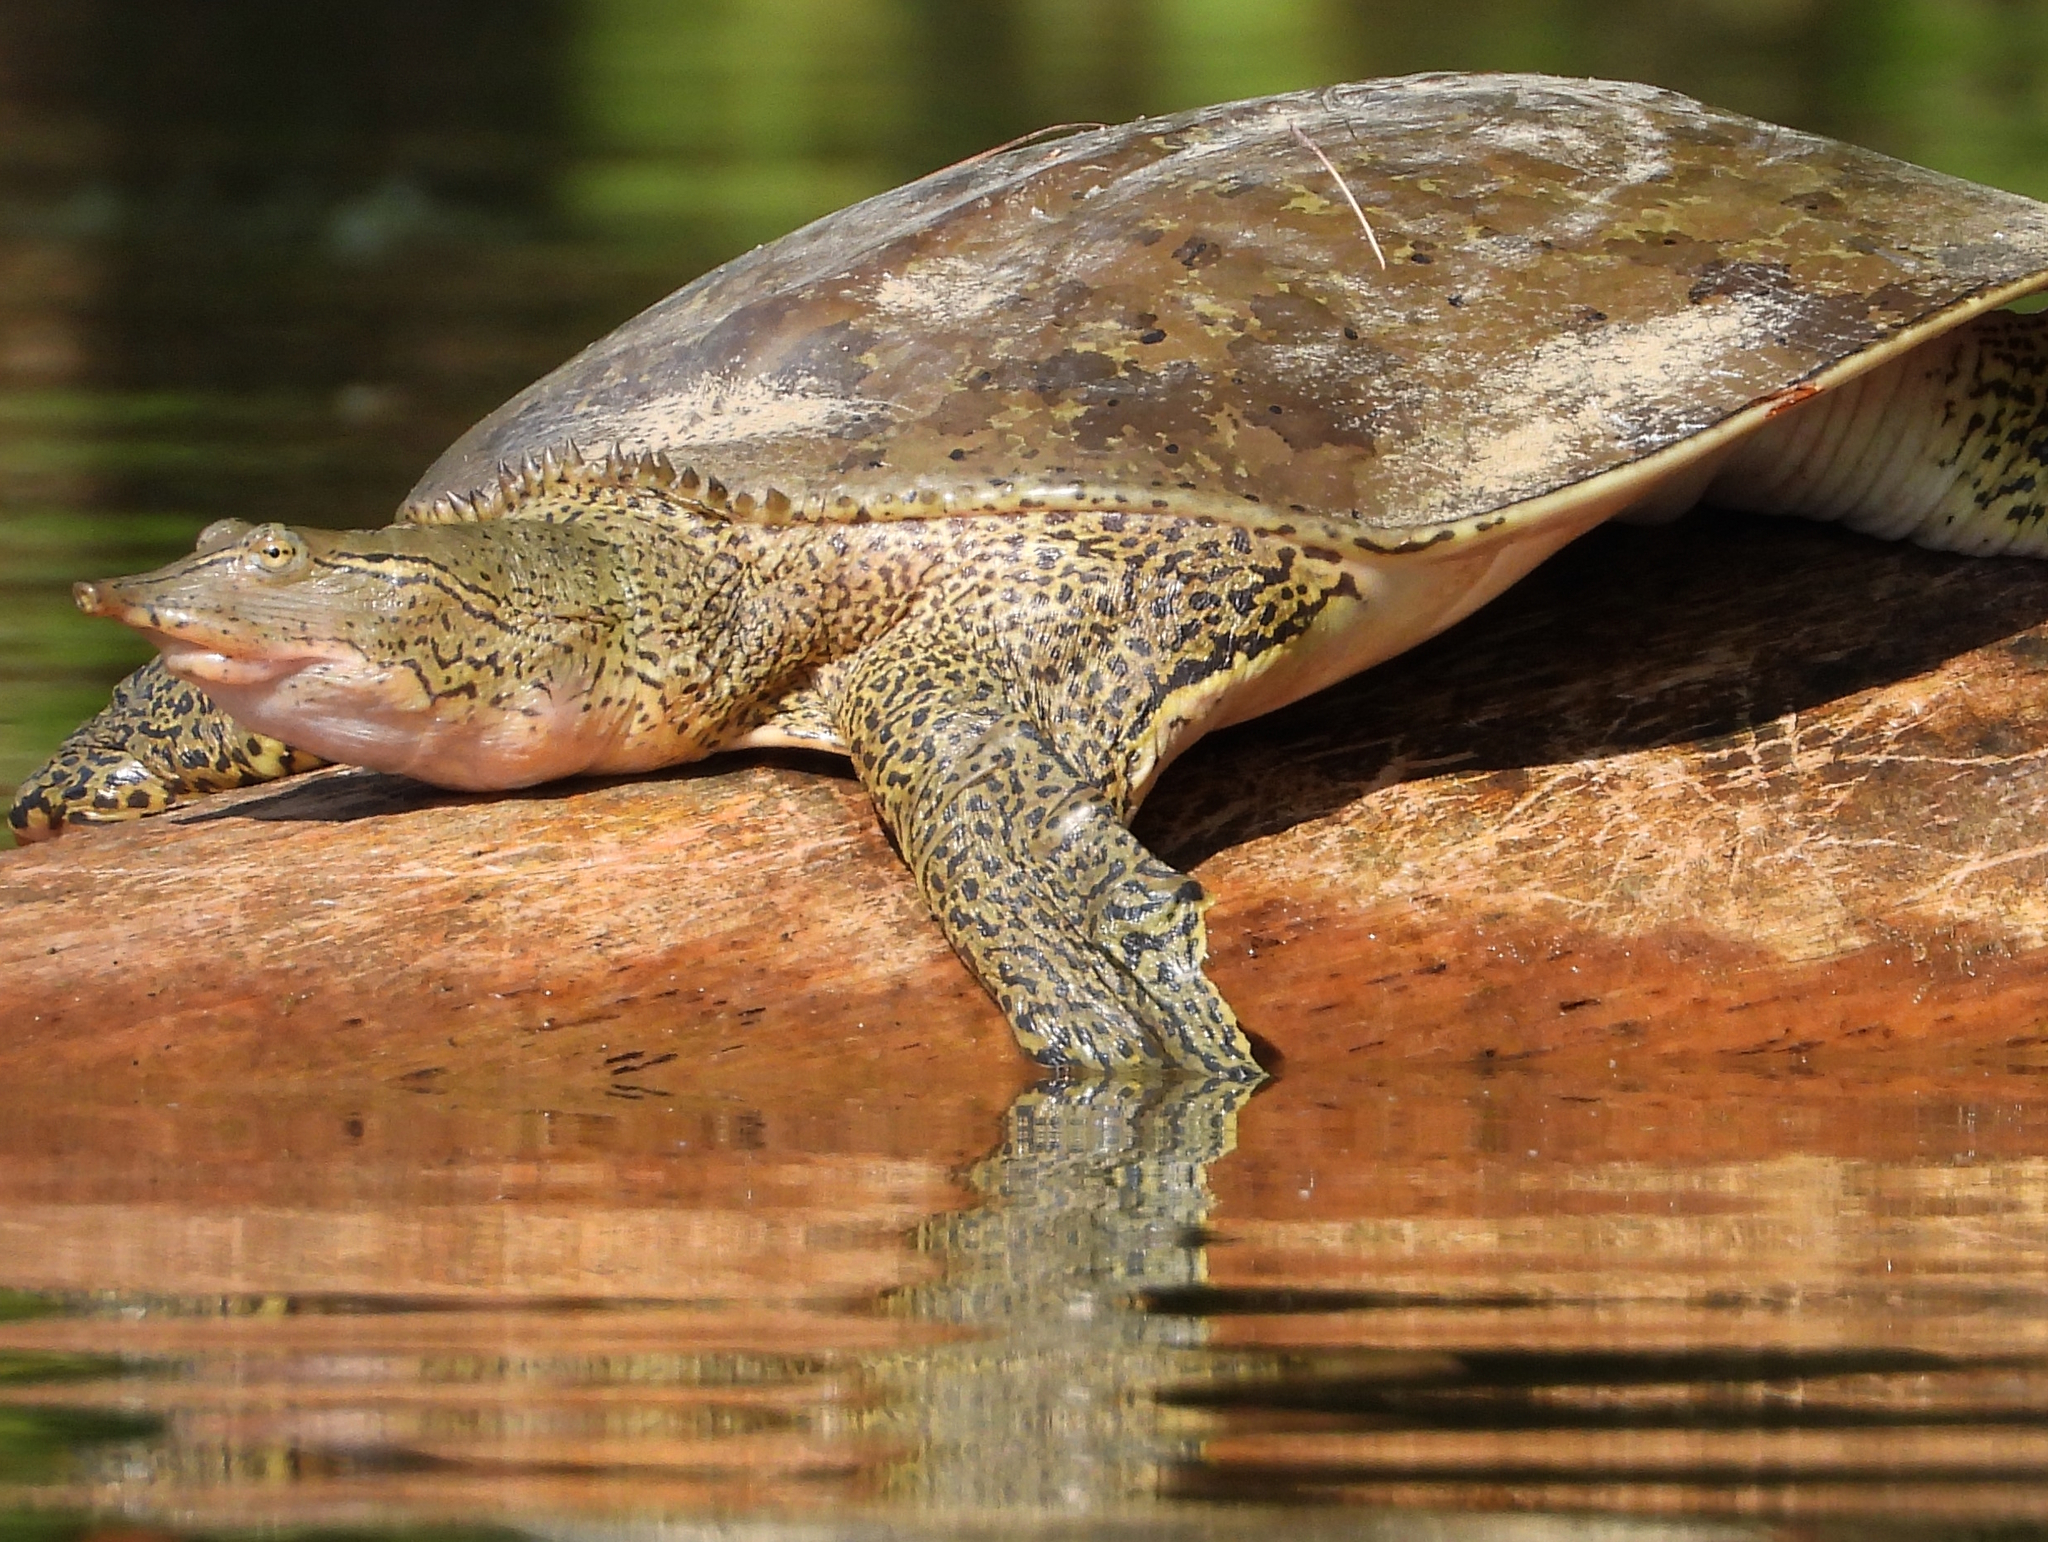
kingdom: Animalia
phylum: Chordata
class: Testudines
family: Trionychidae
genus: Apalone
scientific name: Apalone spinifera
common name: Spiny softshell turtle
